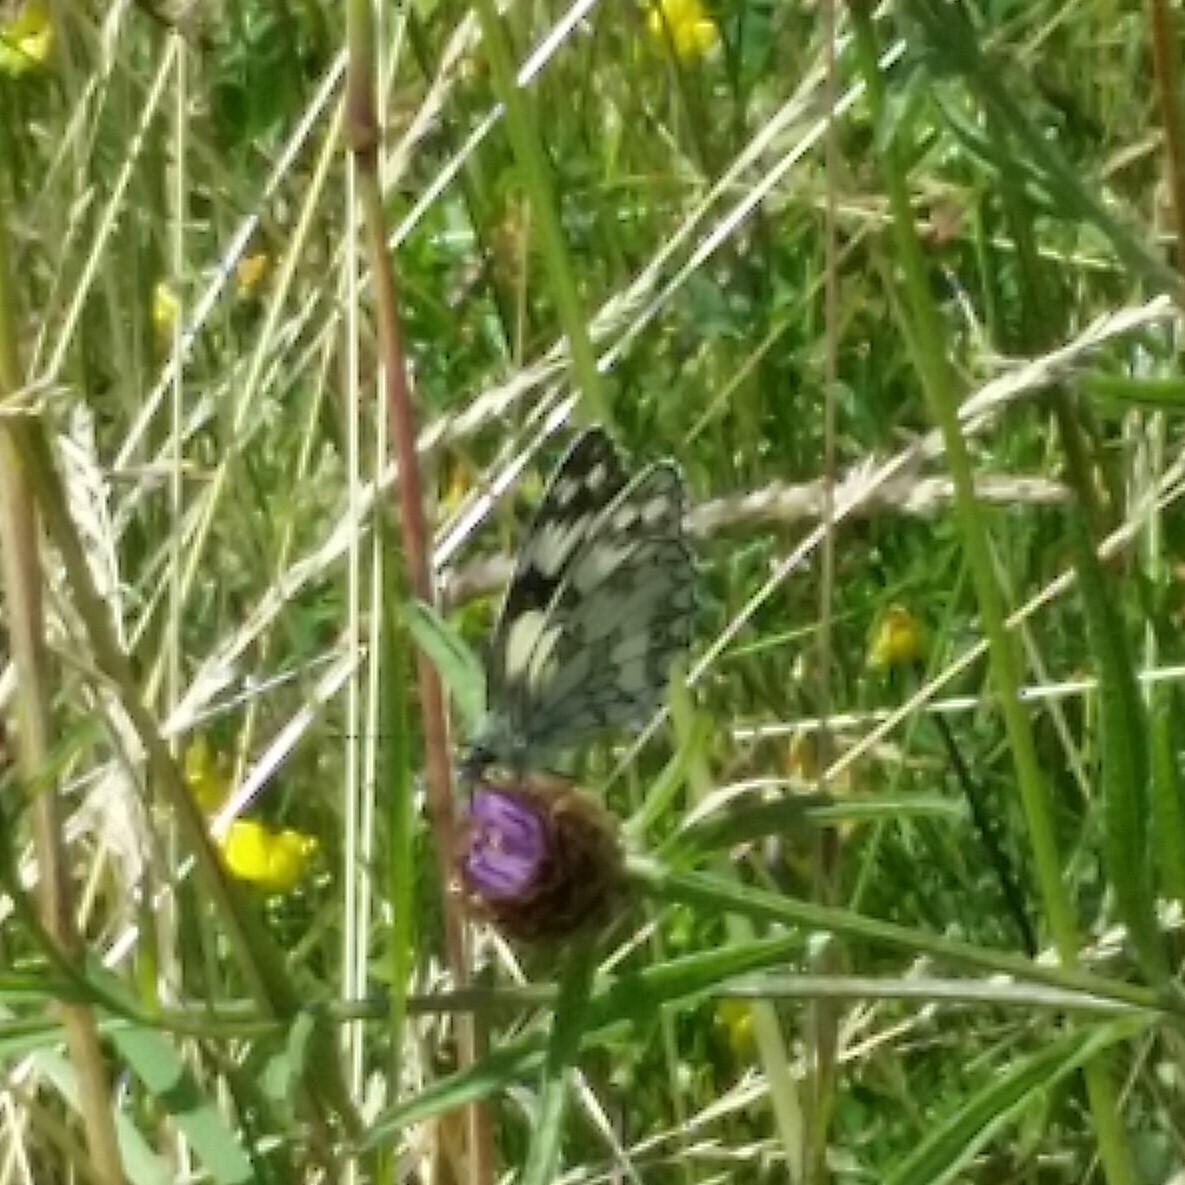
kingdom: Animalia
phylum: Arthropoda
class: Insecta
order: Lepidoptera
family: Nymphalidae
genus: Melanargia
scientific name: Melanargia galathea
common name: Marbled white
